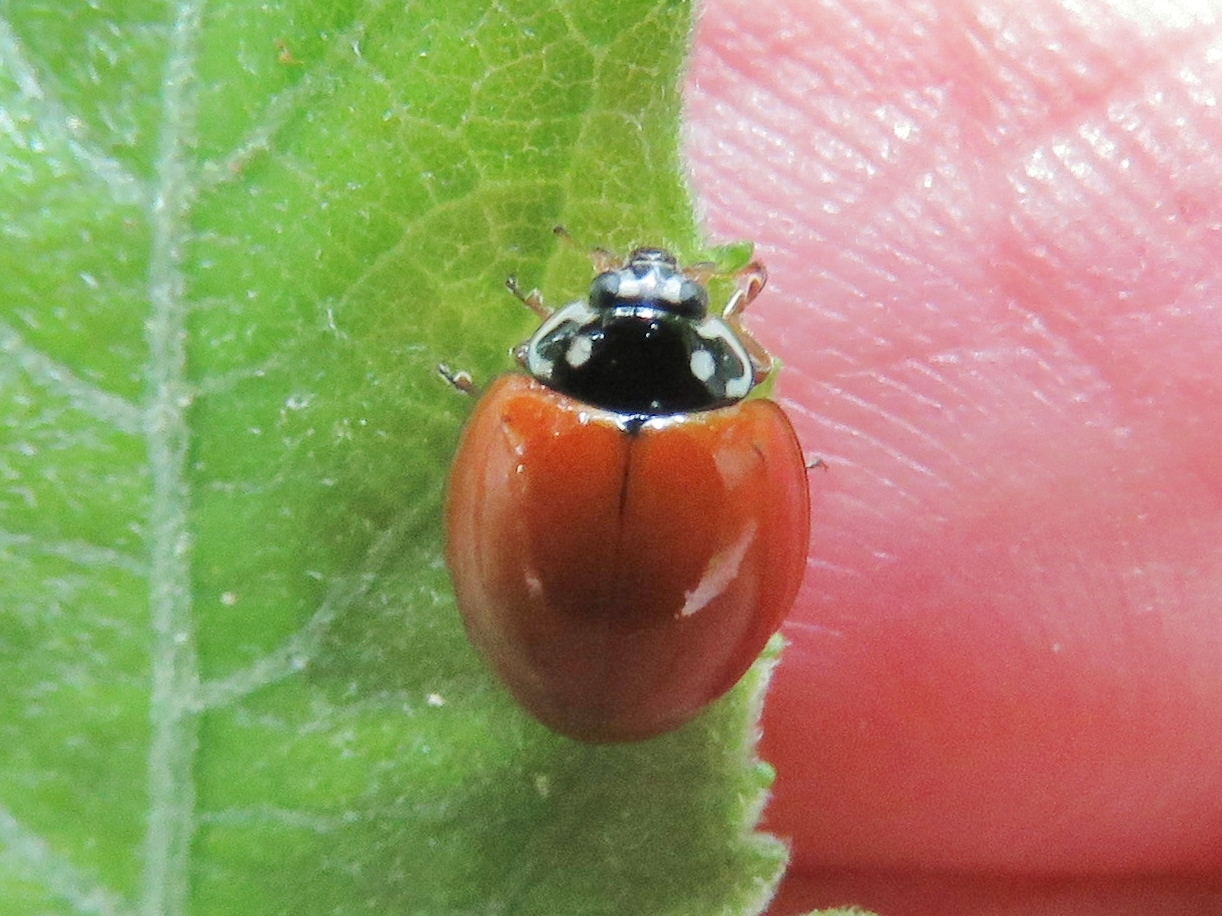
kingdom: Animalia
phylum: Arthropoda
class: Insecta
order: Coleoptera
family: Coccinellidae
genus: Cycloneda
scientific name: Cycloneda sanguinea
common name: Ladybird beetle
